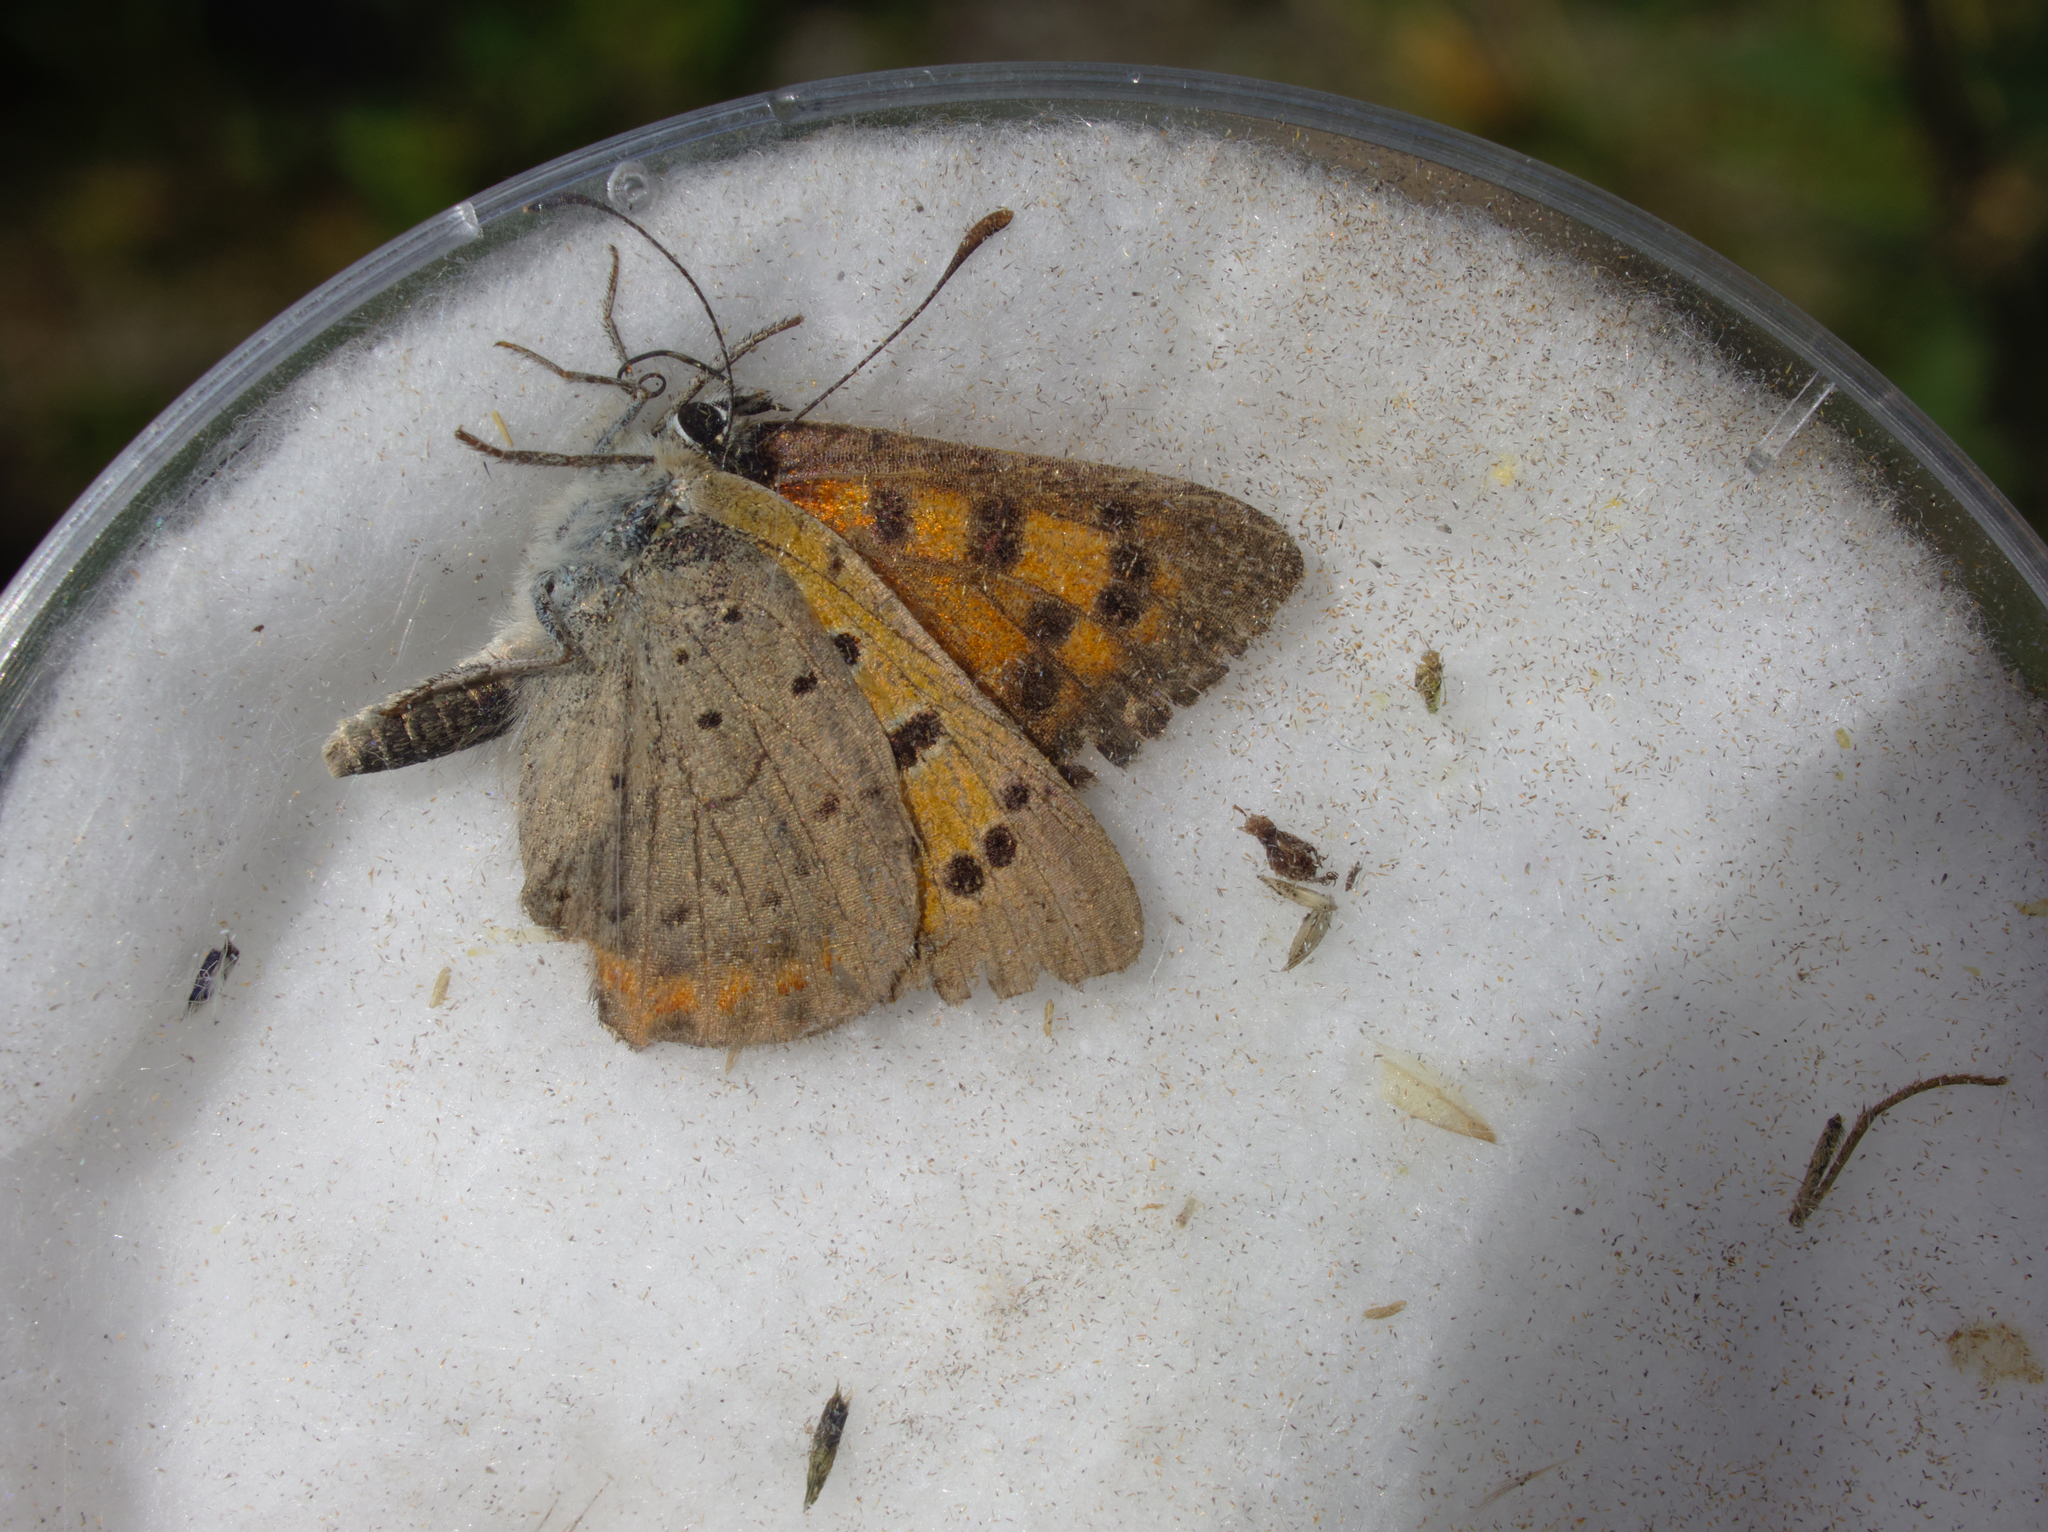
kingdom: Animalia
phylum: Arthropoda
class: Insecta
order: Lepidoptera
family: Lycaenidae
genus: Lycaena
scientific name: Lycaena phlaeas
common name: Small copper
